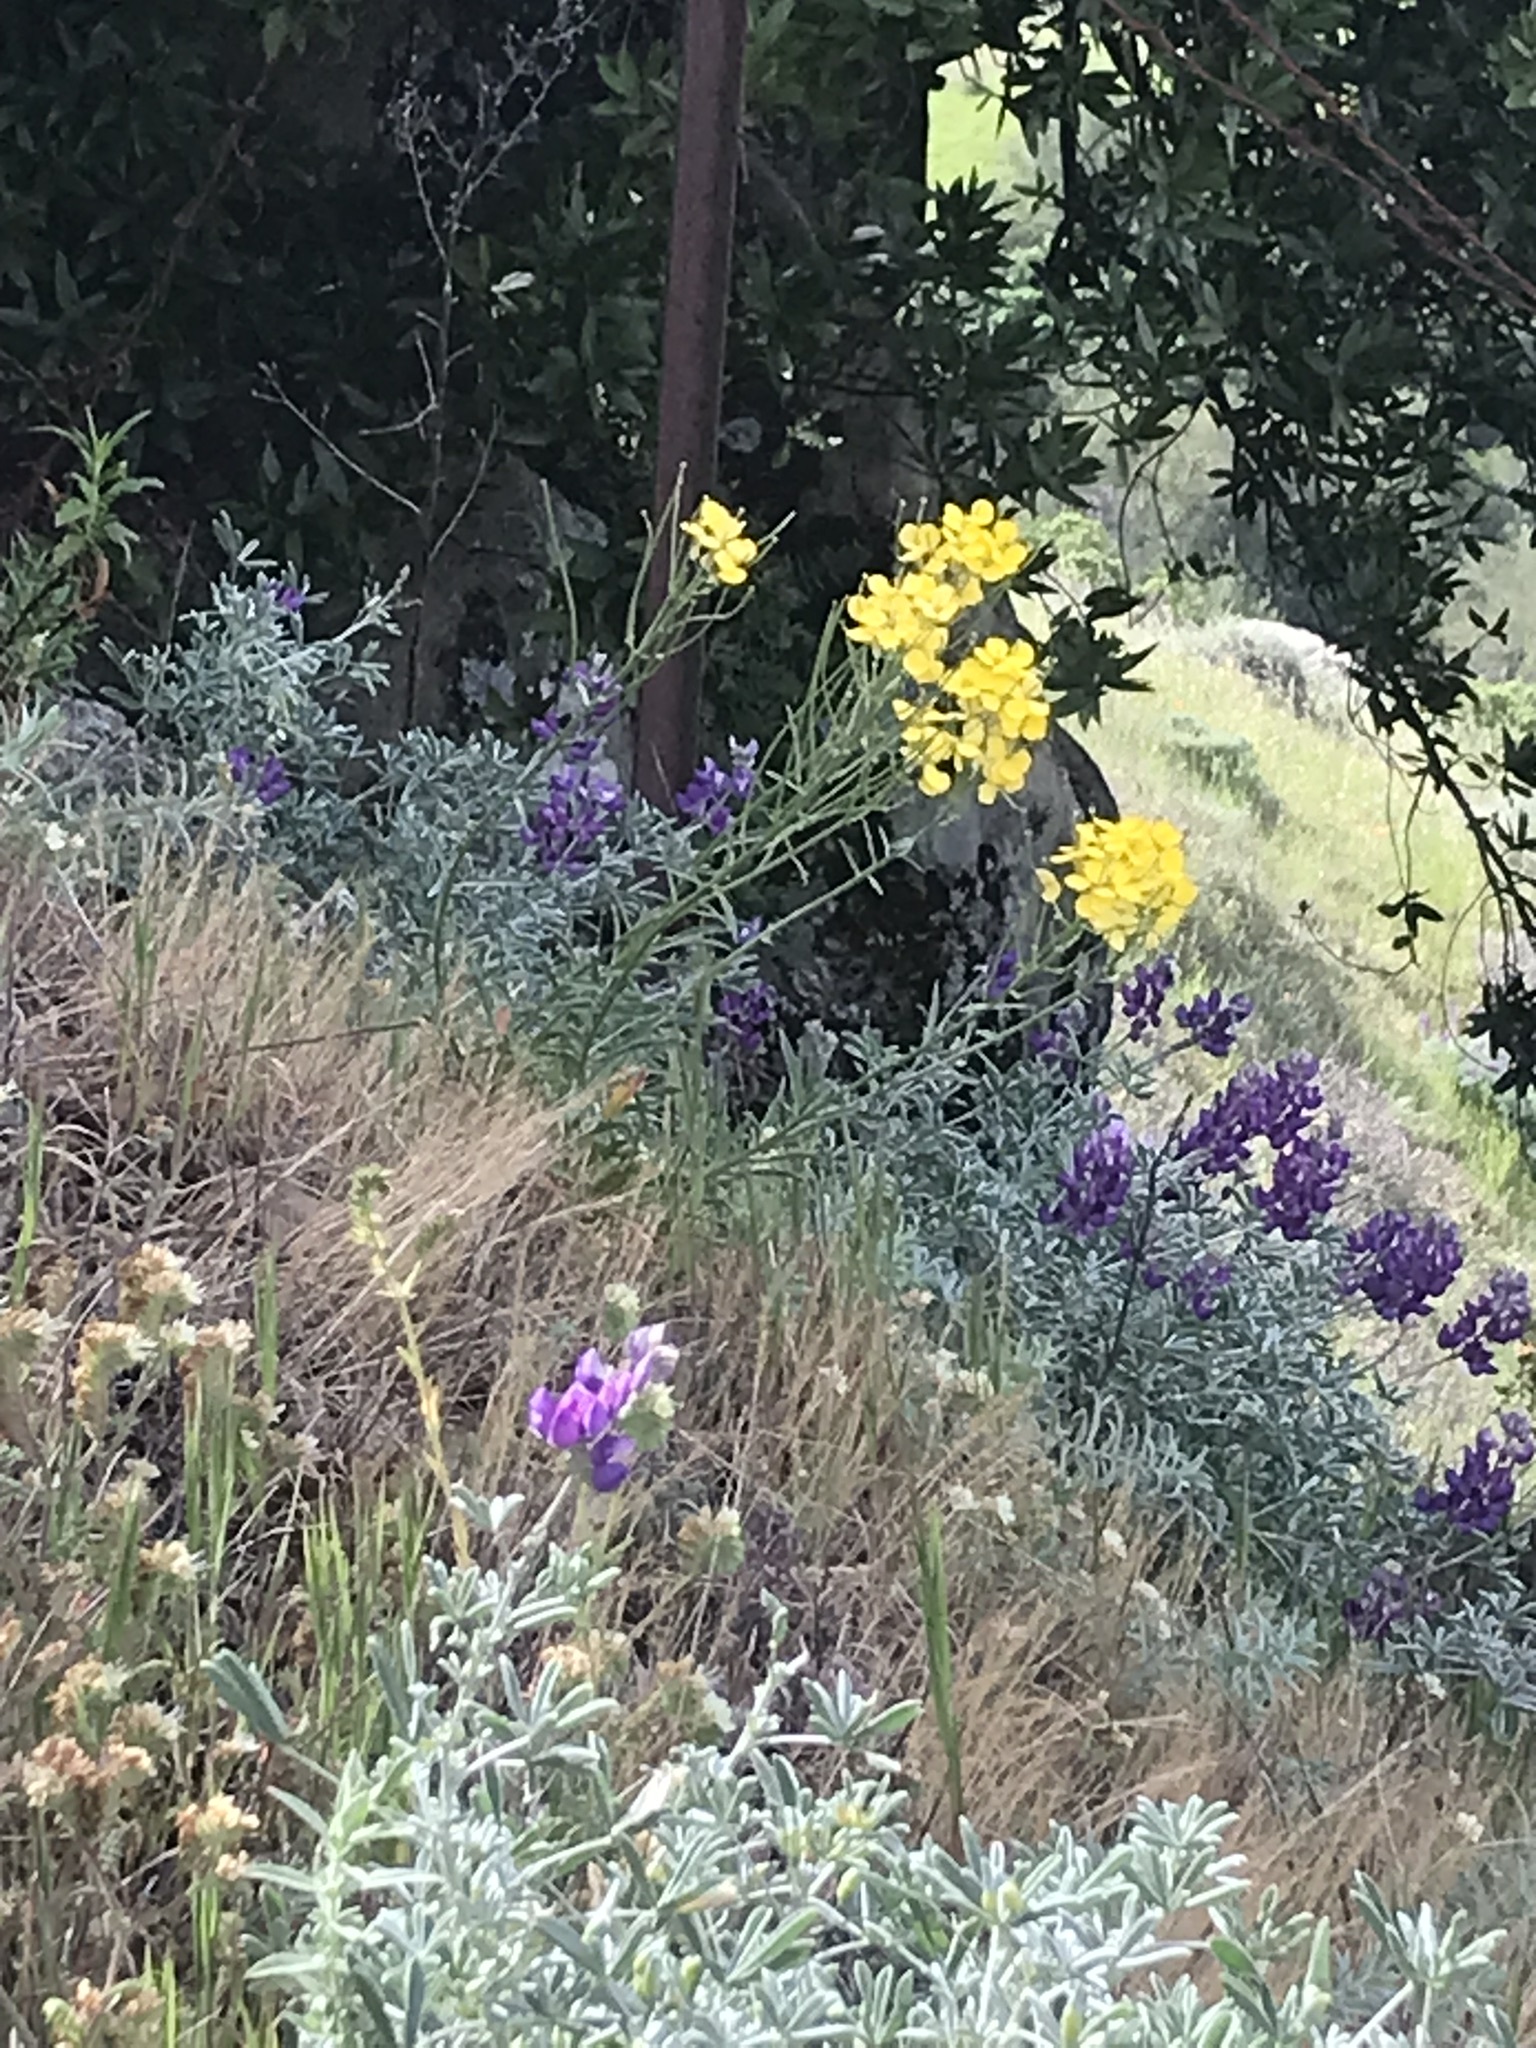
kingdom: Plantae
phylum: Tracheophyta
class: Magnoliopsida
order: Brassicales
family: Brassicaceae
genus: Erysimum
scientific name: Erysimum capitatum
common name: Western wallflower
